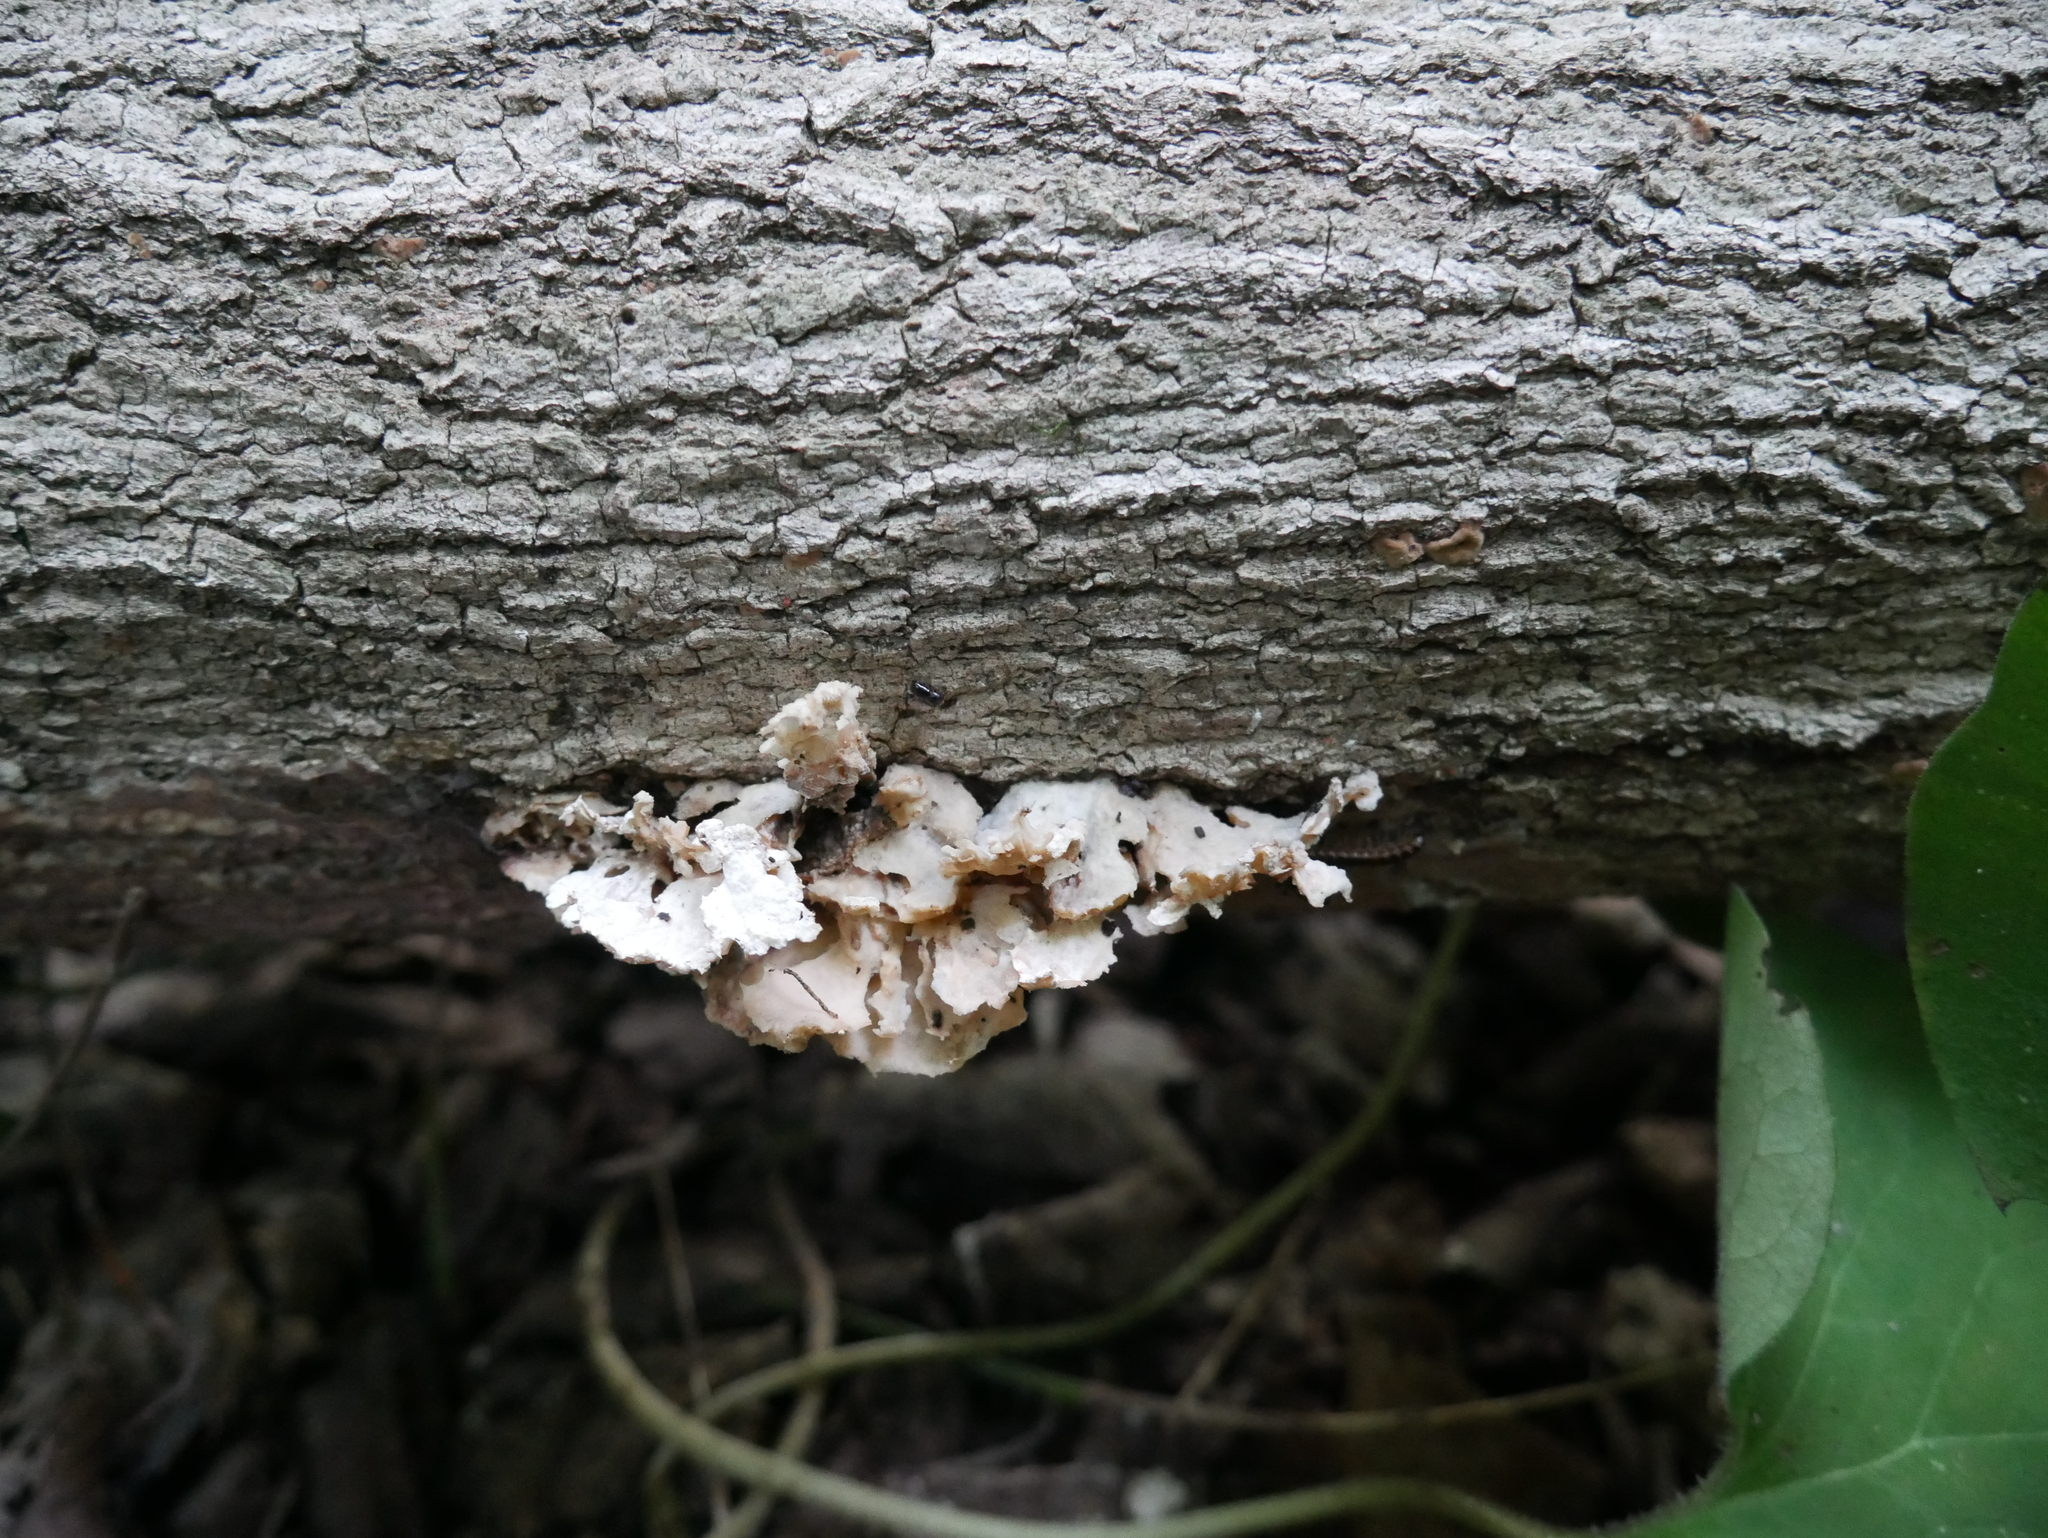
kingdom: Fungi
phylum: Basidiomycota
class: Agaricomycetes
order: Agaricales
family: Mycenaceae
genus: Panellus
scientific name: Panellus stipticus
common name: Bitter oysterling
